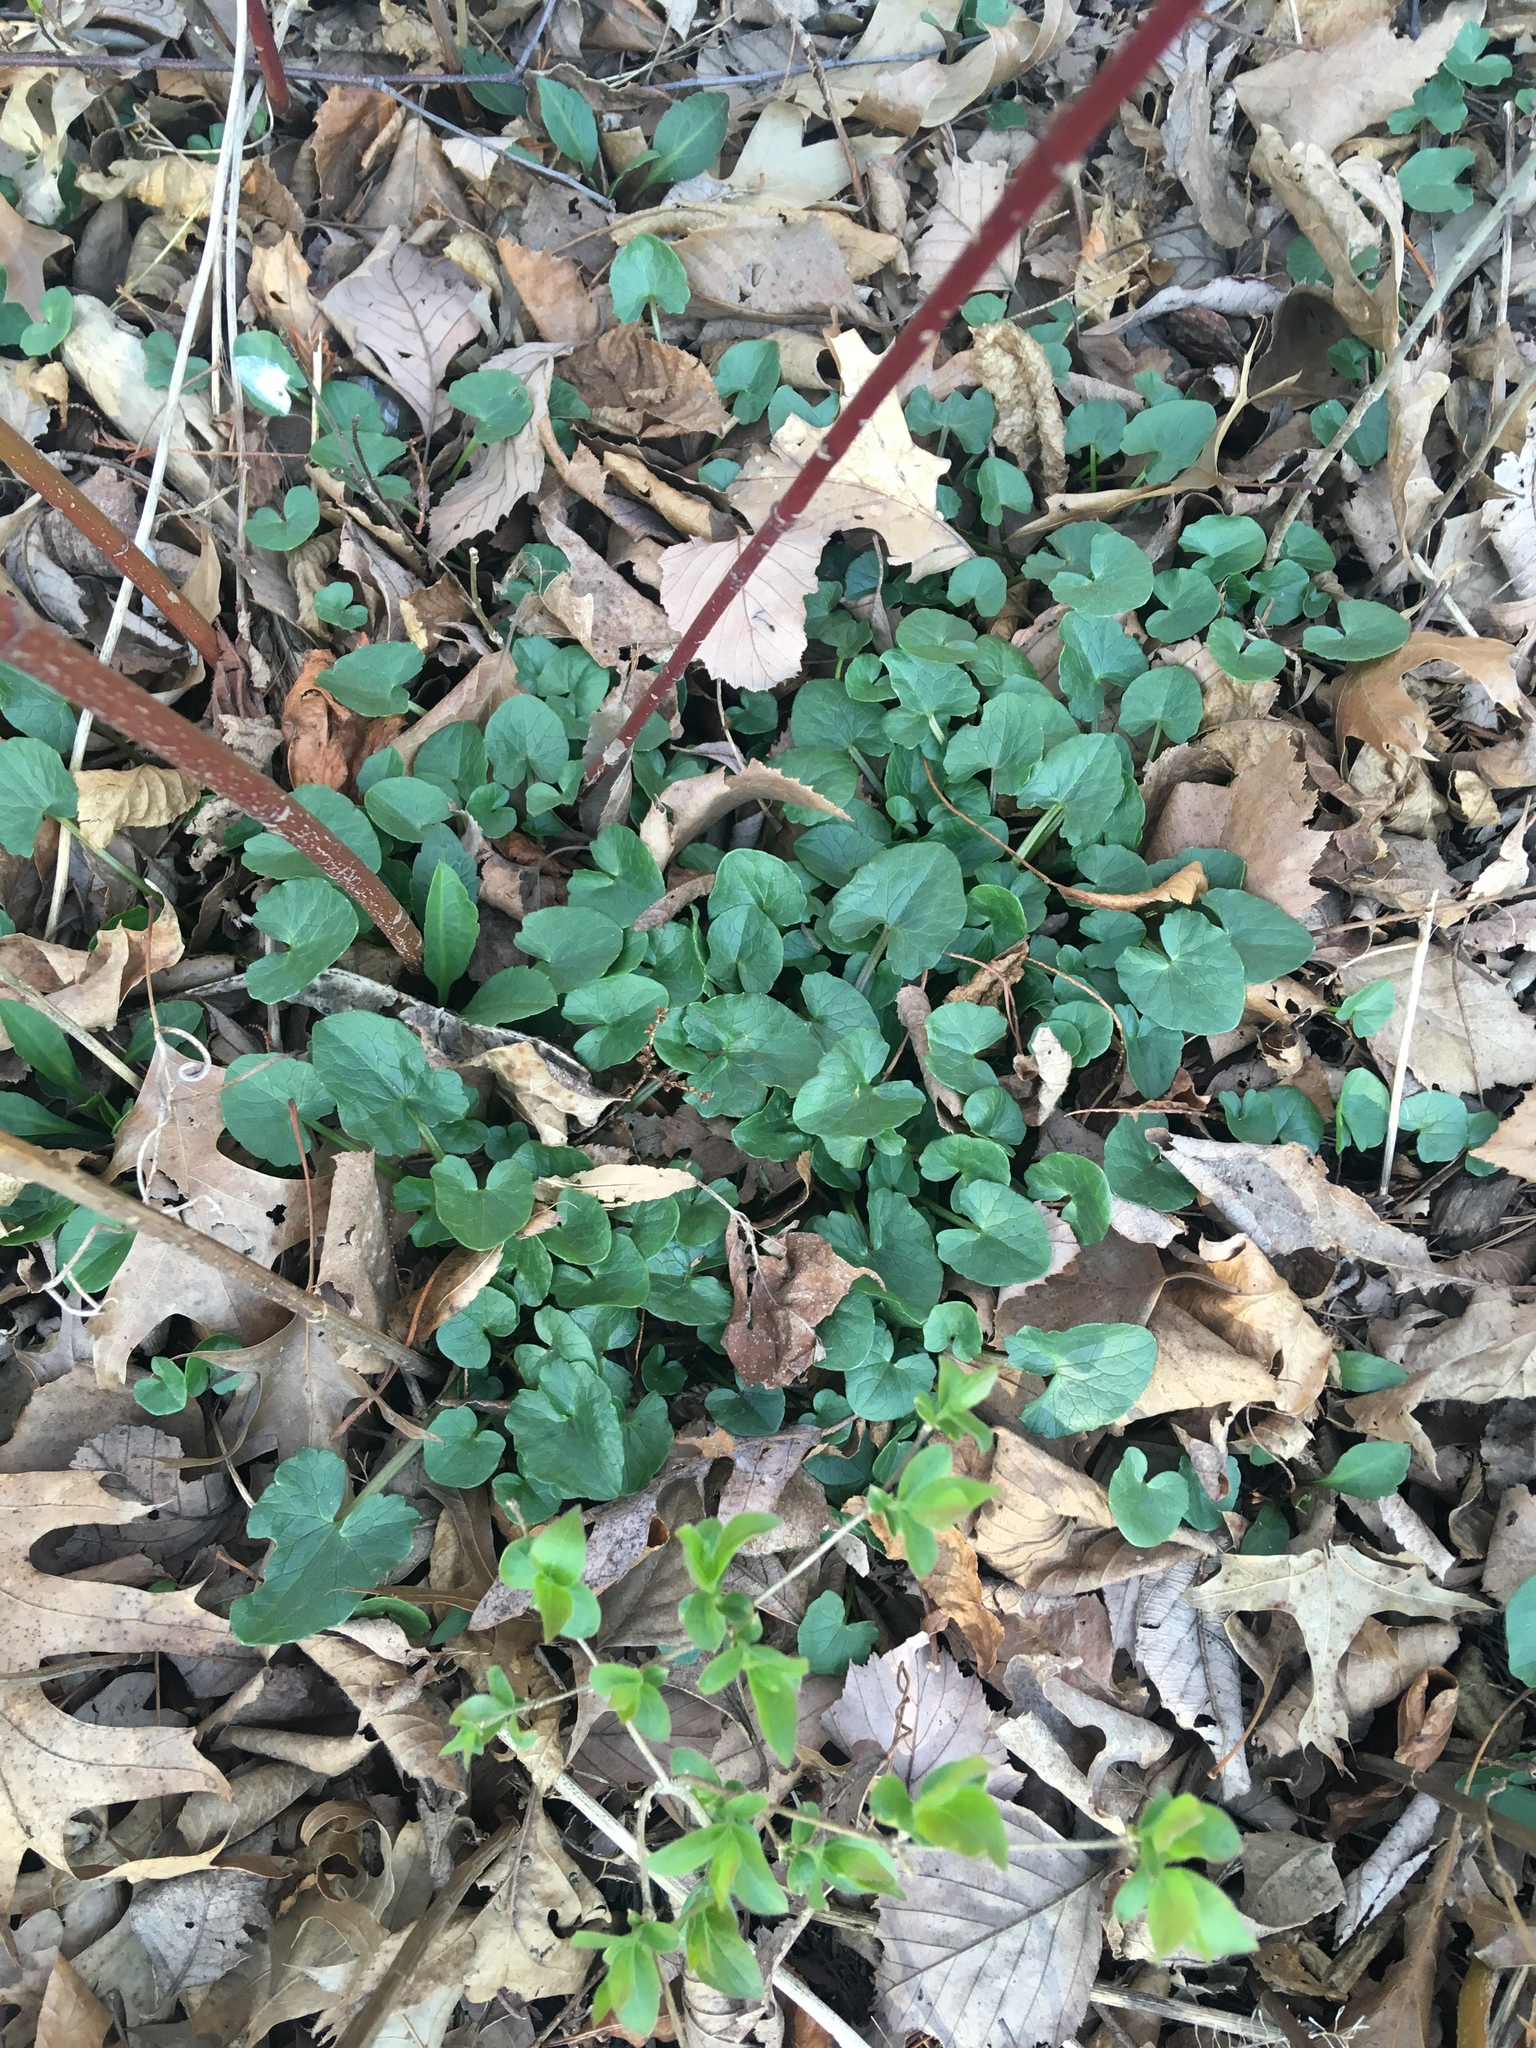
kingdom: Plantae
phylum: Tracheophyta
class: Magnoliopsida
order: Ranunculales
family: Ranunculaceae
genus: Ficaria
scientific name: Ficaria verna
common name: Lesser celandine
